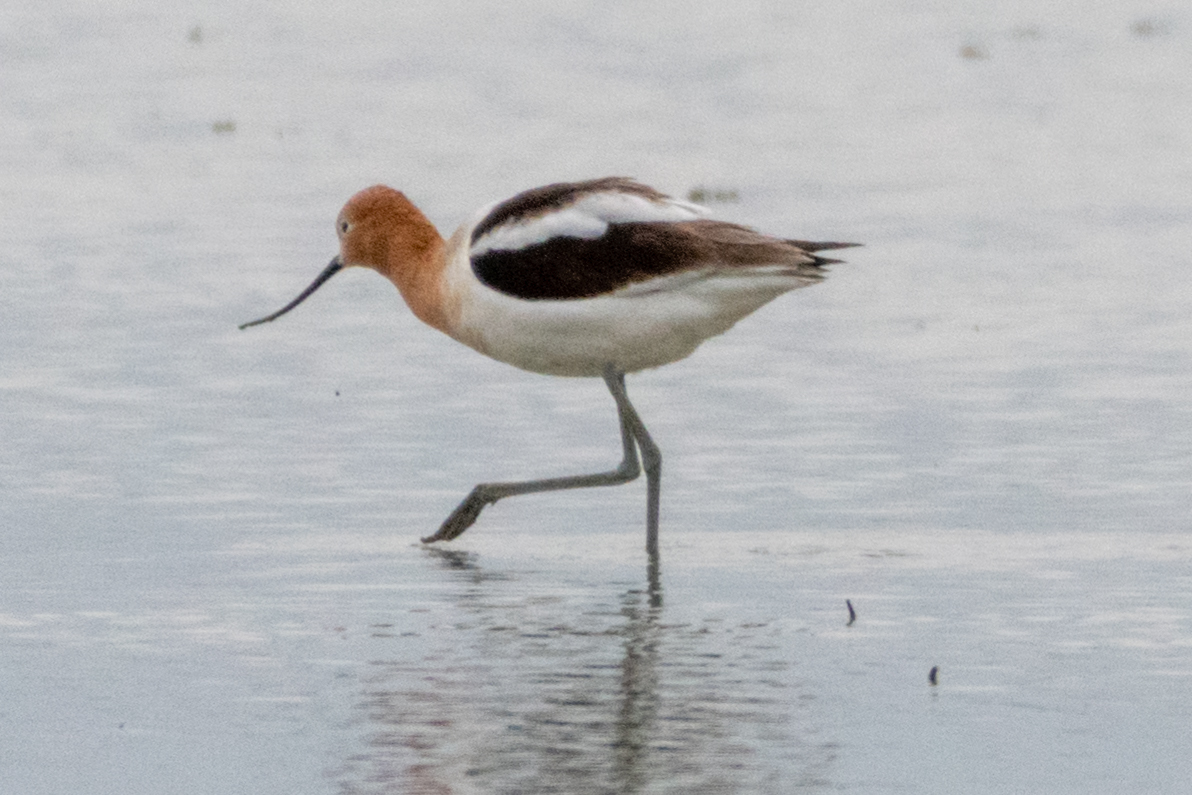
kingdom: Animalia
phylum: Chordata
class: Aves
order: Charadriiformes
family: Recurvirostridae
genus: Recurvirostra
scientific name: Recurvirostra americana
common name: American avocet
